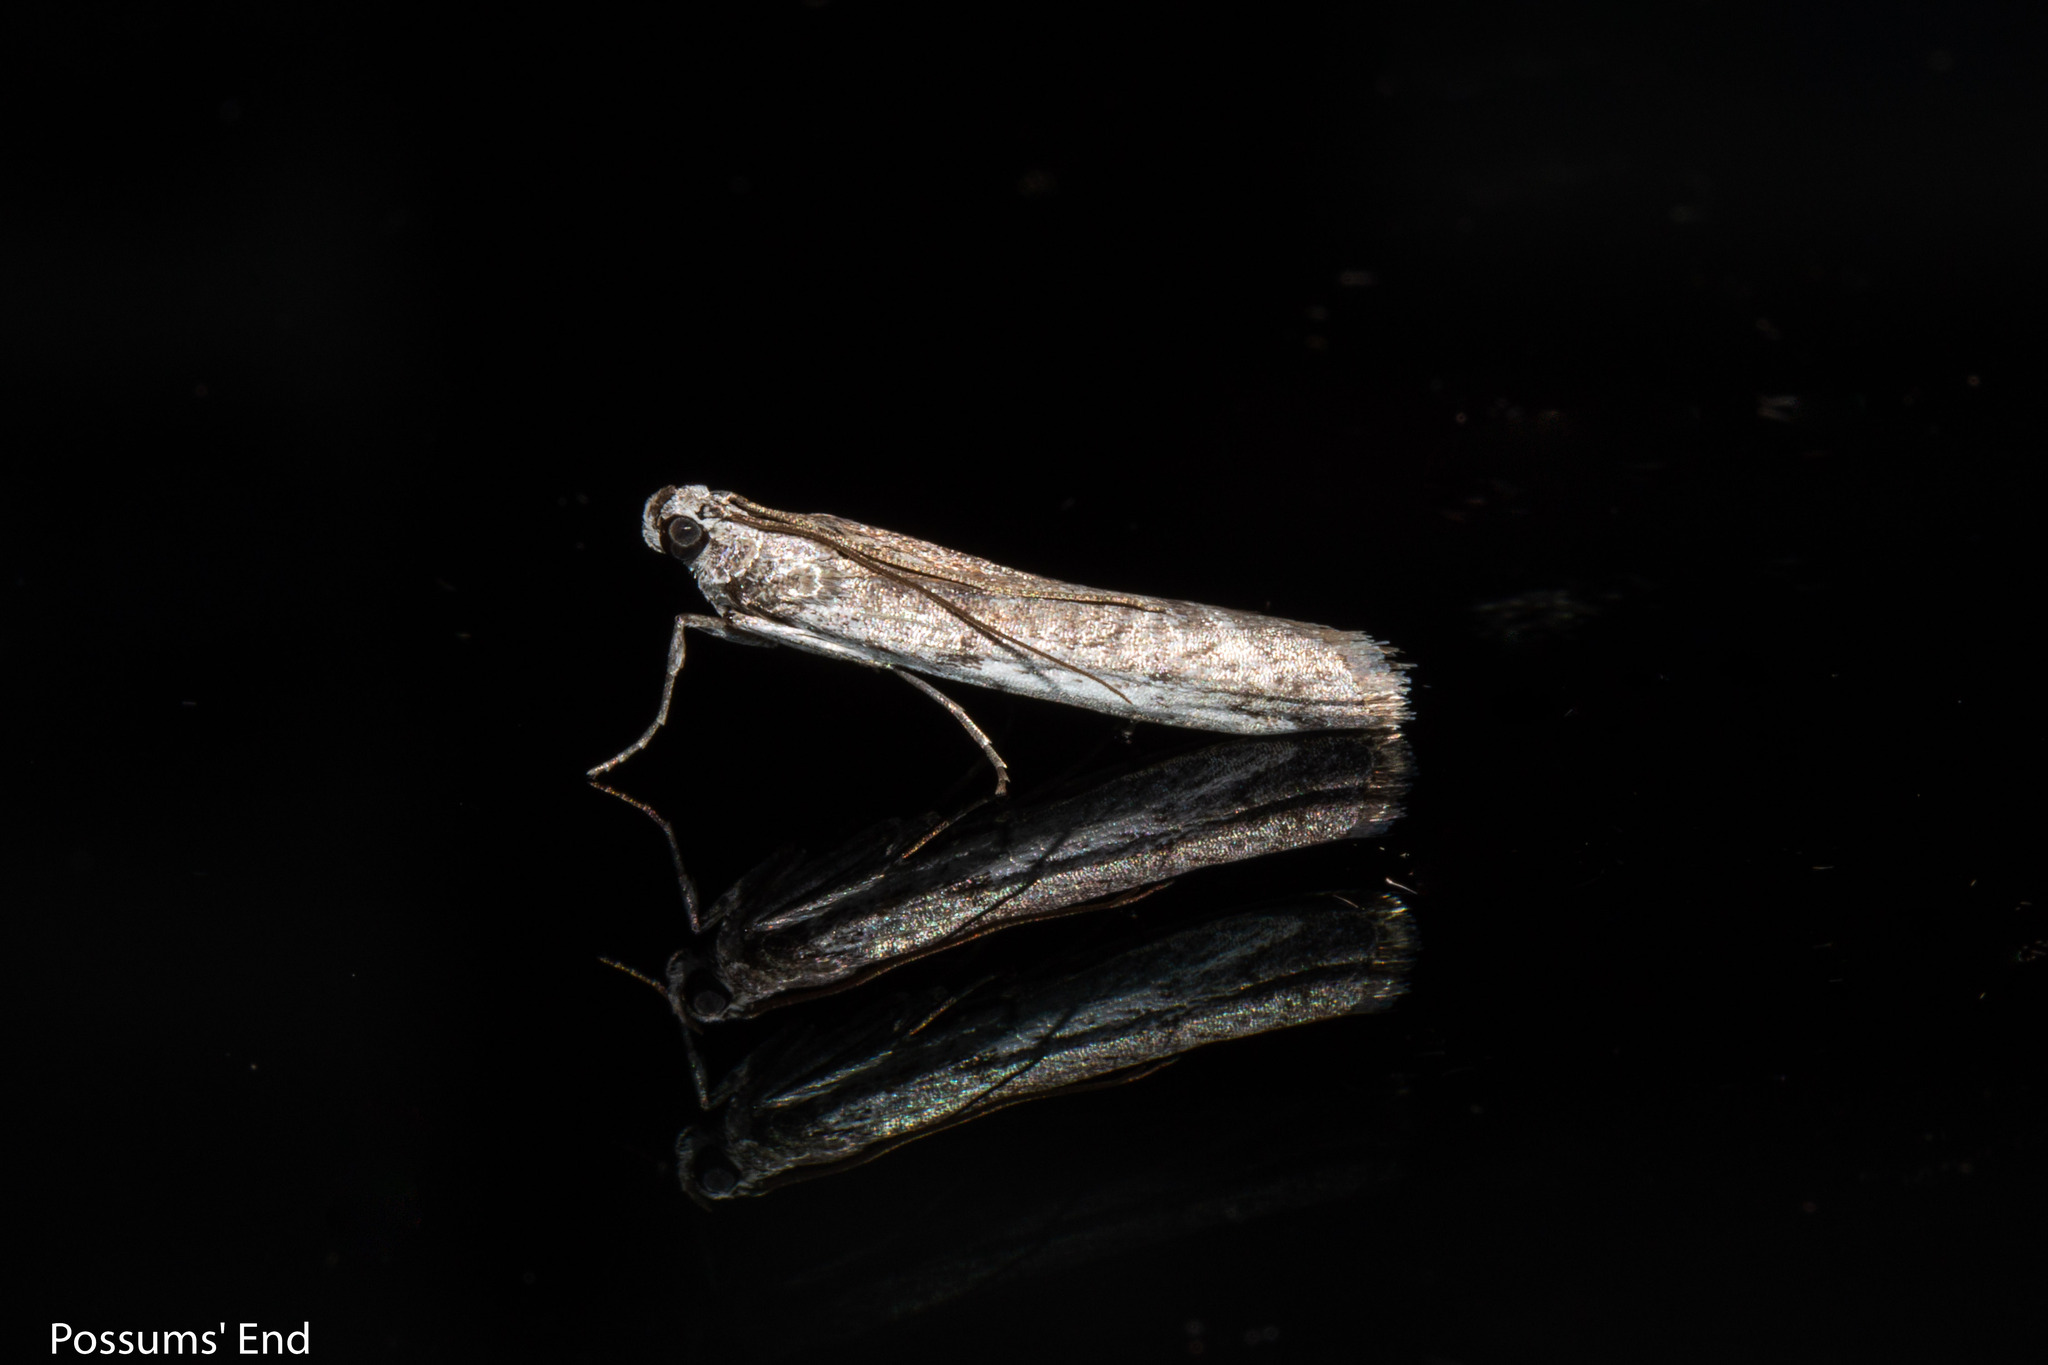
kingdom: Animalia
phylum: Arthropoda
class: Insecta
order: Lepidoptera
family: Pyralidae
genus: Patagoniodes
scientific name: Patagoniodes farinaria
